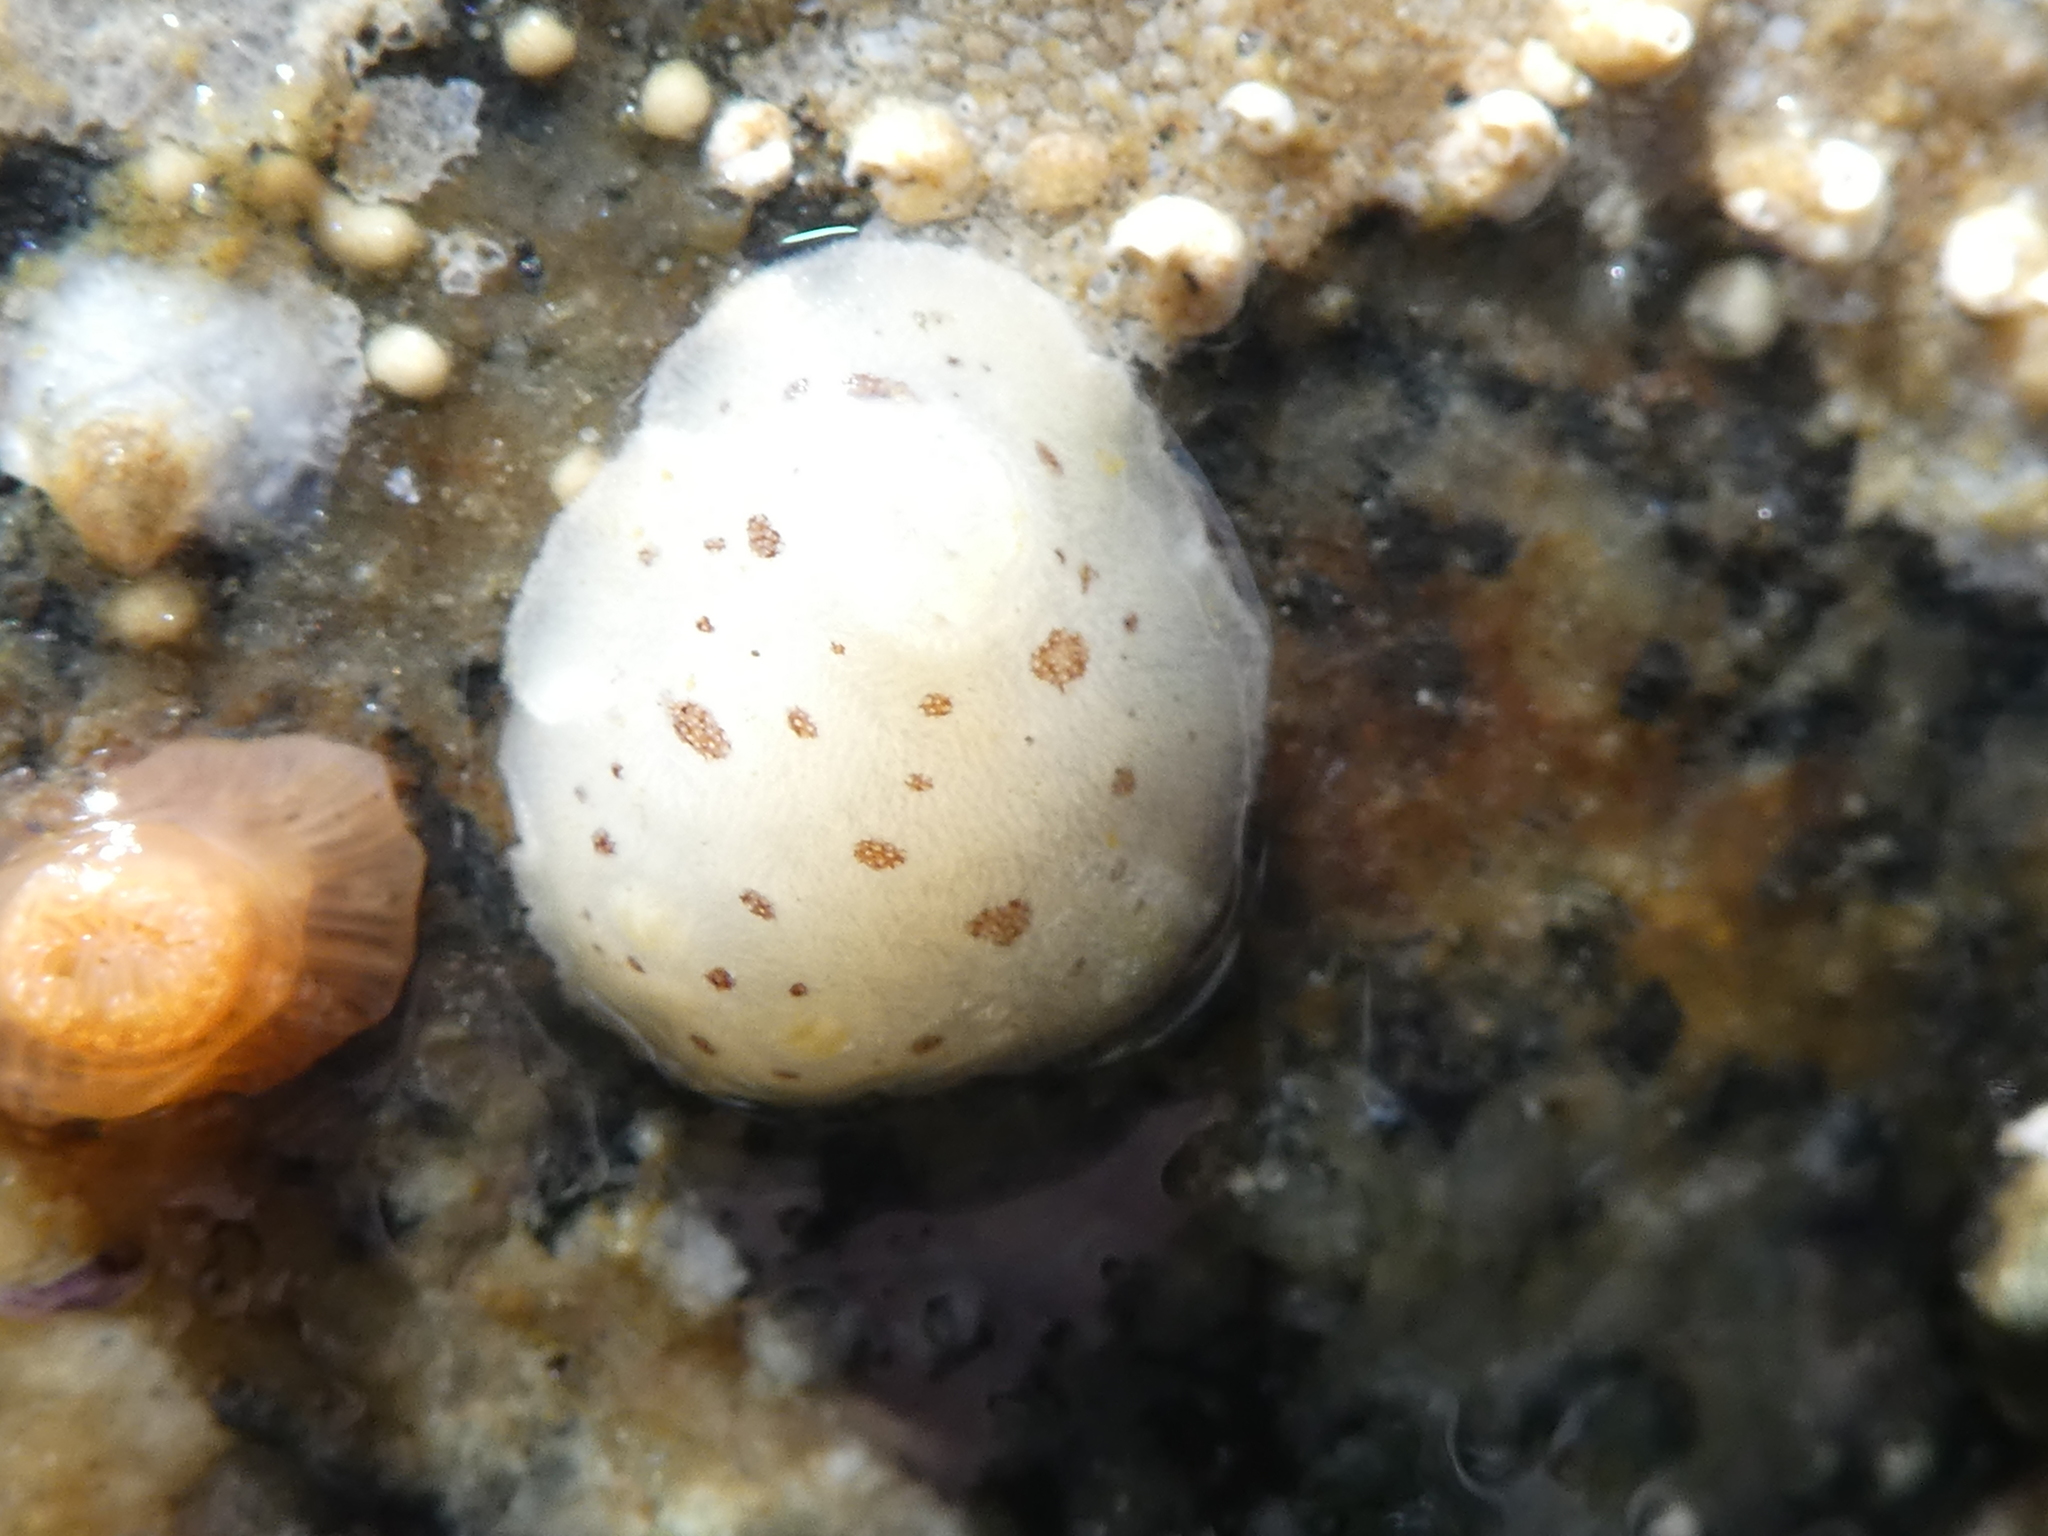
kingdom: Animalia
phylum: Mollusca
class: Gastropoda
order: Nudibranchia
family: Discodorididae
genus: Diaulula
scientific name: Diaulula odonoghuei
